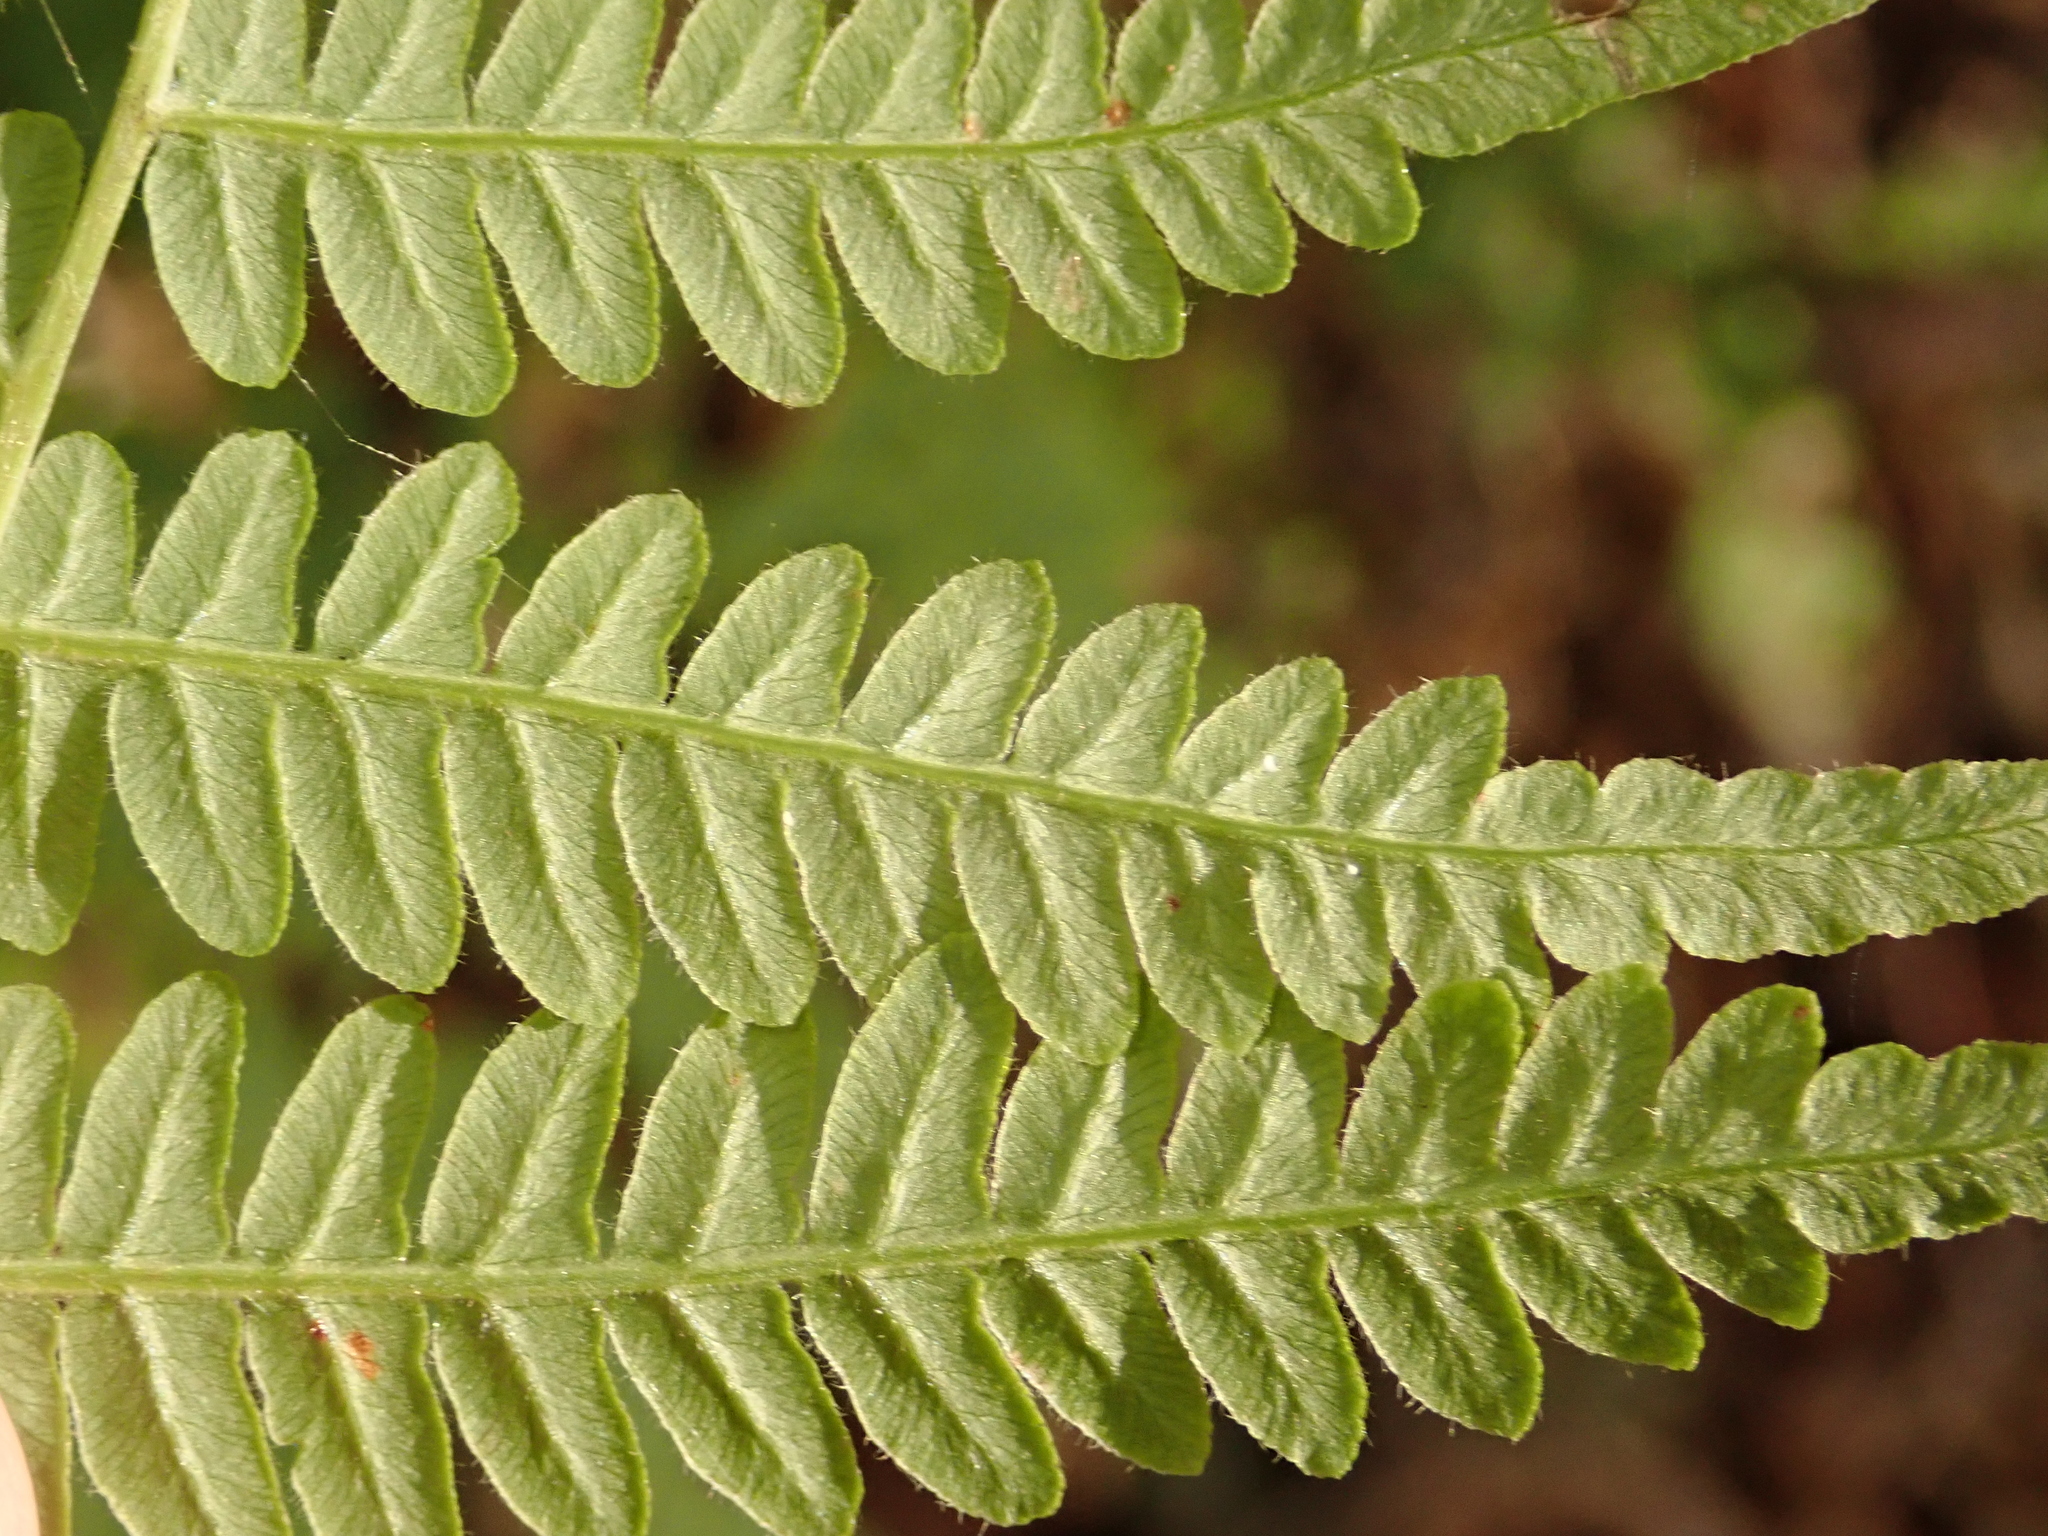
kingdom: Plantae
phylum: Tracheophyta
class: Polypodiopsida
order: Polypodiales
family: Dennstaedtiaceae
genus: Pteridium
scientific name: Pteridium aquilinum
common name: Bracken
